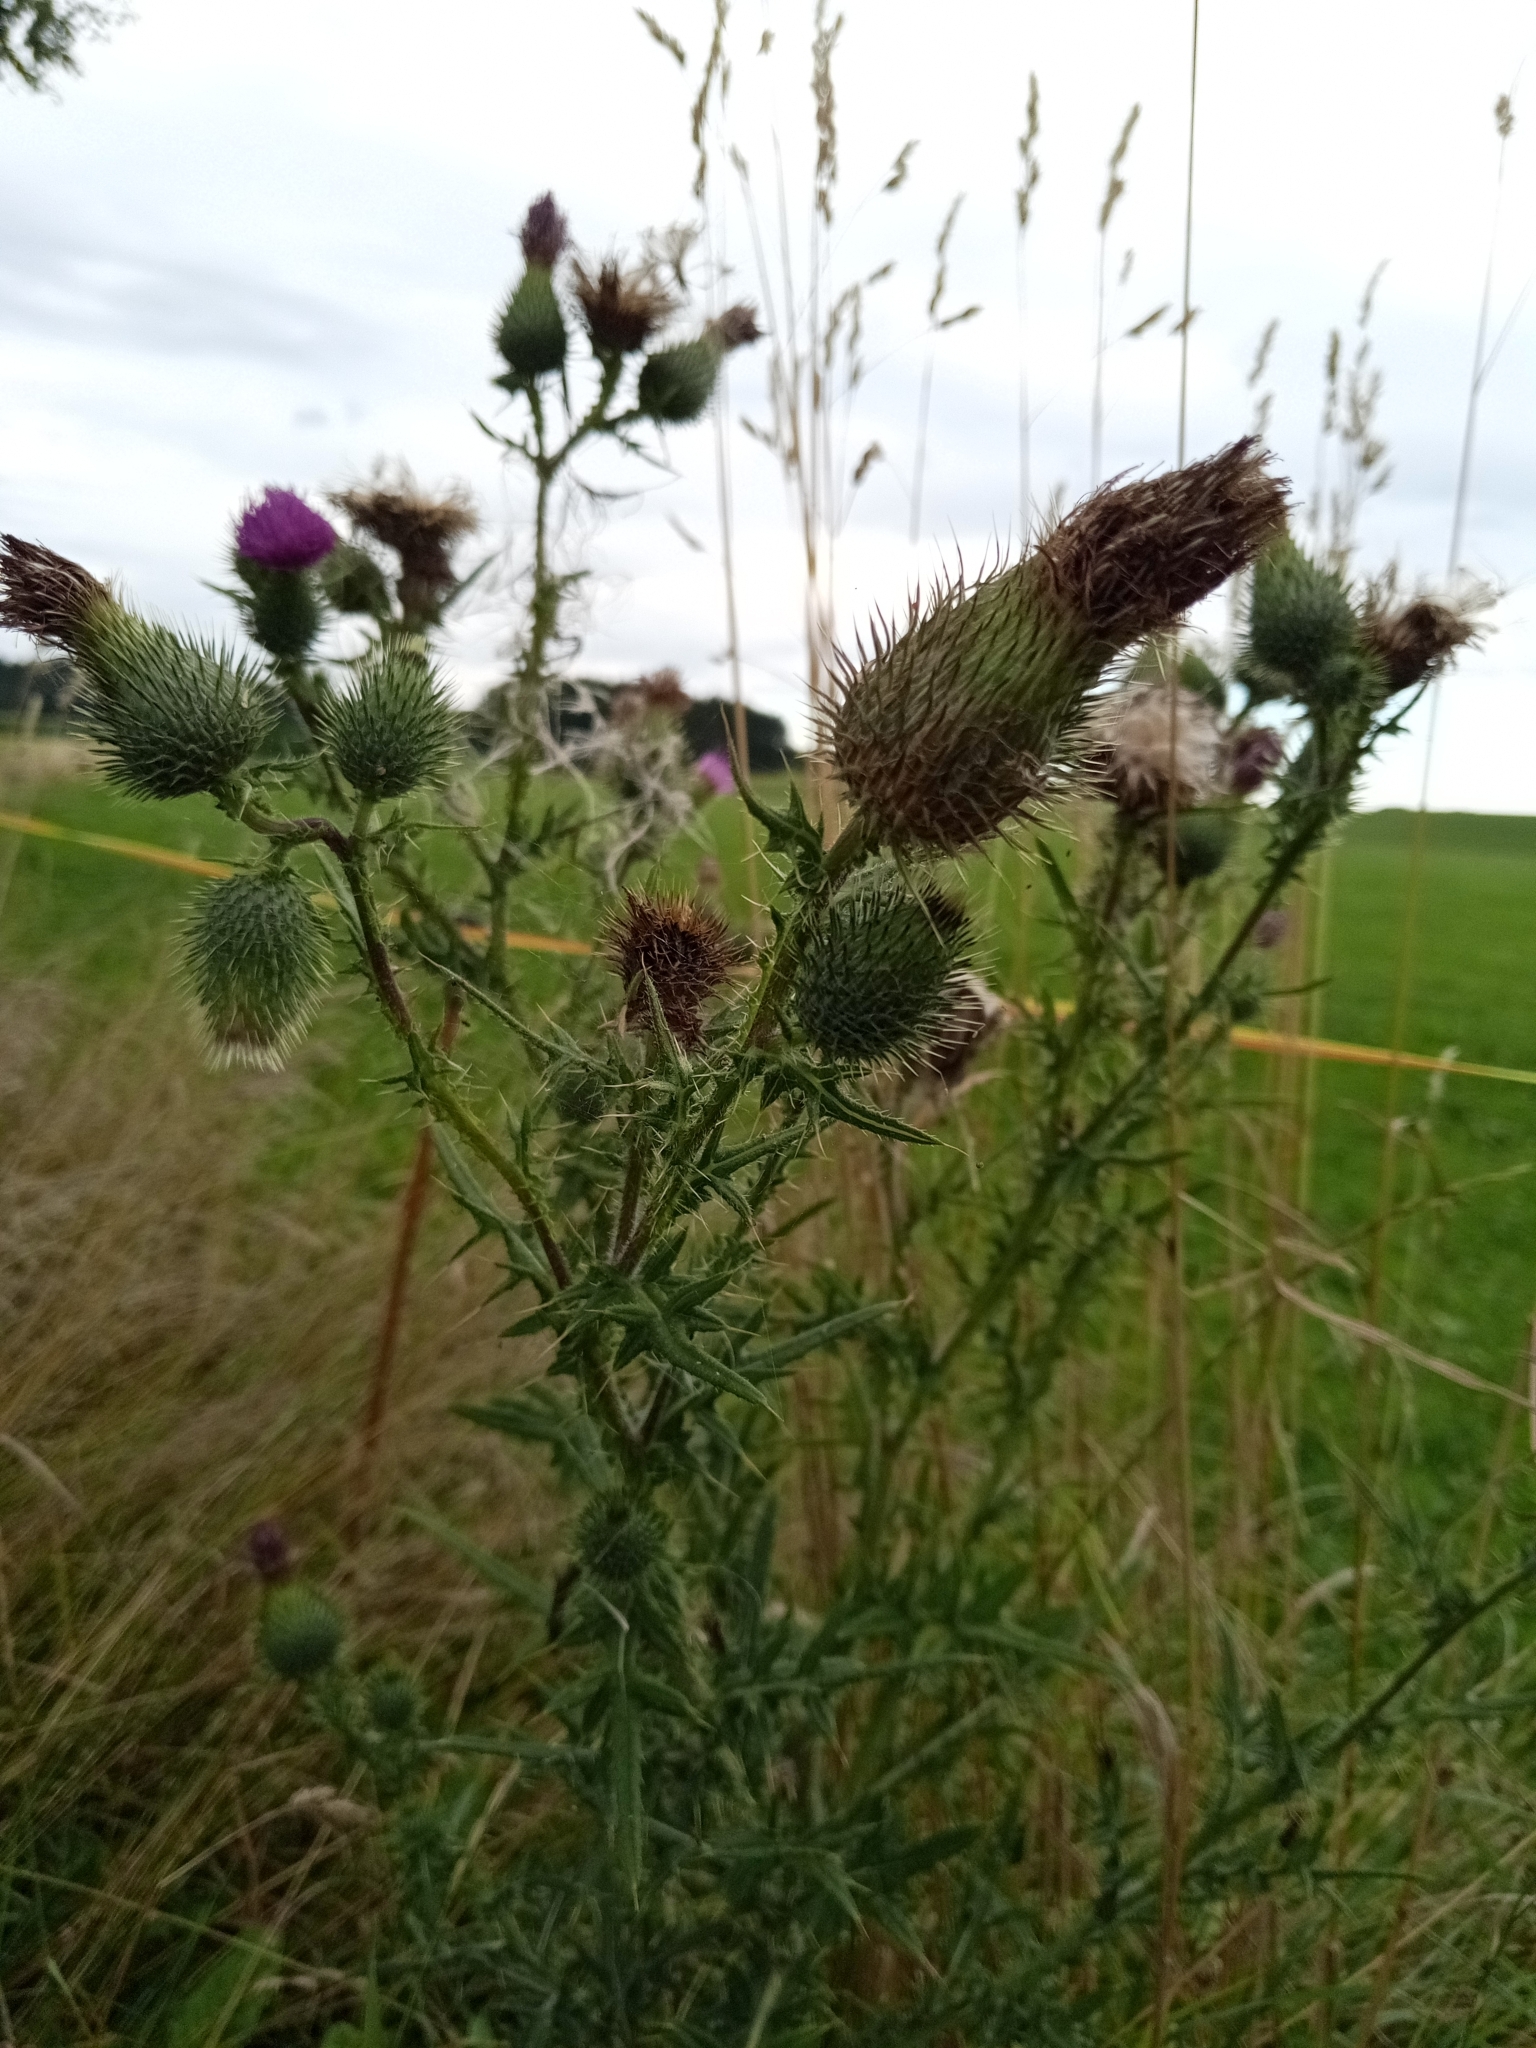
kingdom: Plantae
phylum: Tracheophyta
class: Magnoliopsida
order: Asterales
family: Asteraceae
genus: Cirsium
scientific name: Cirsium vulgare
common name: Bull thistle
